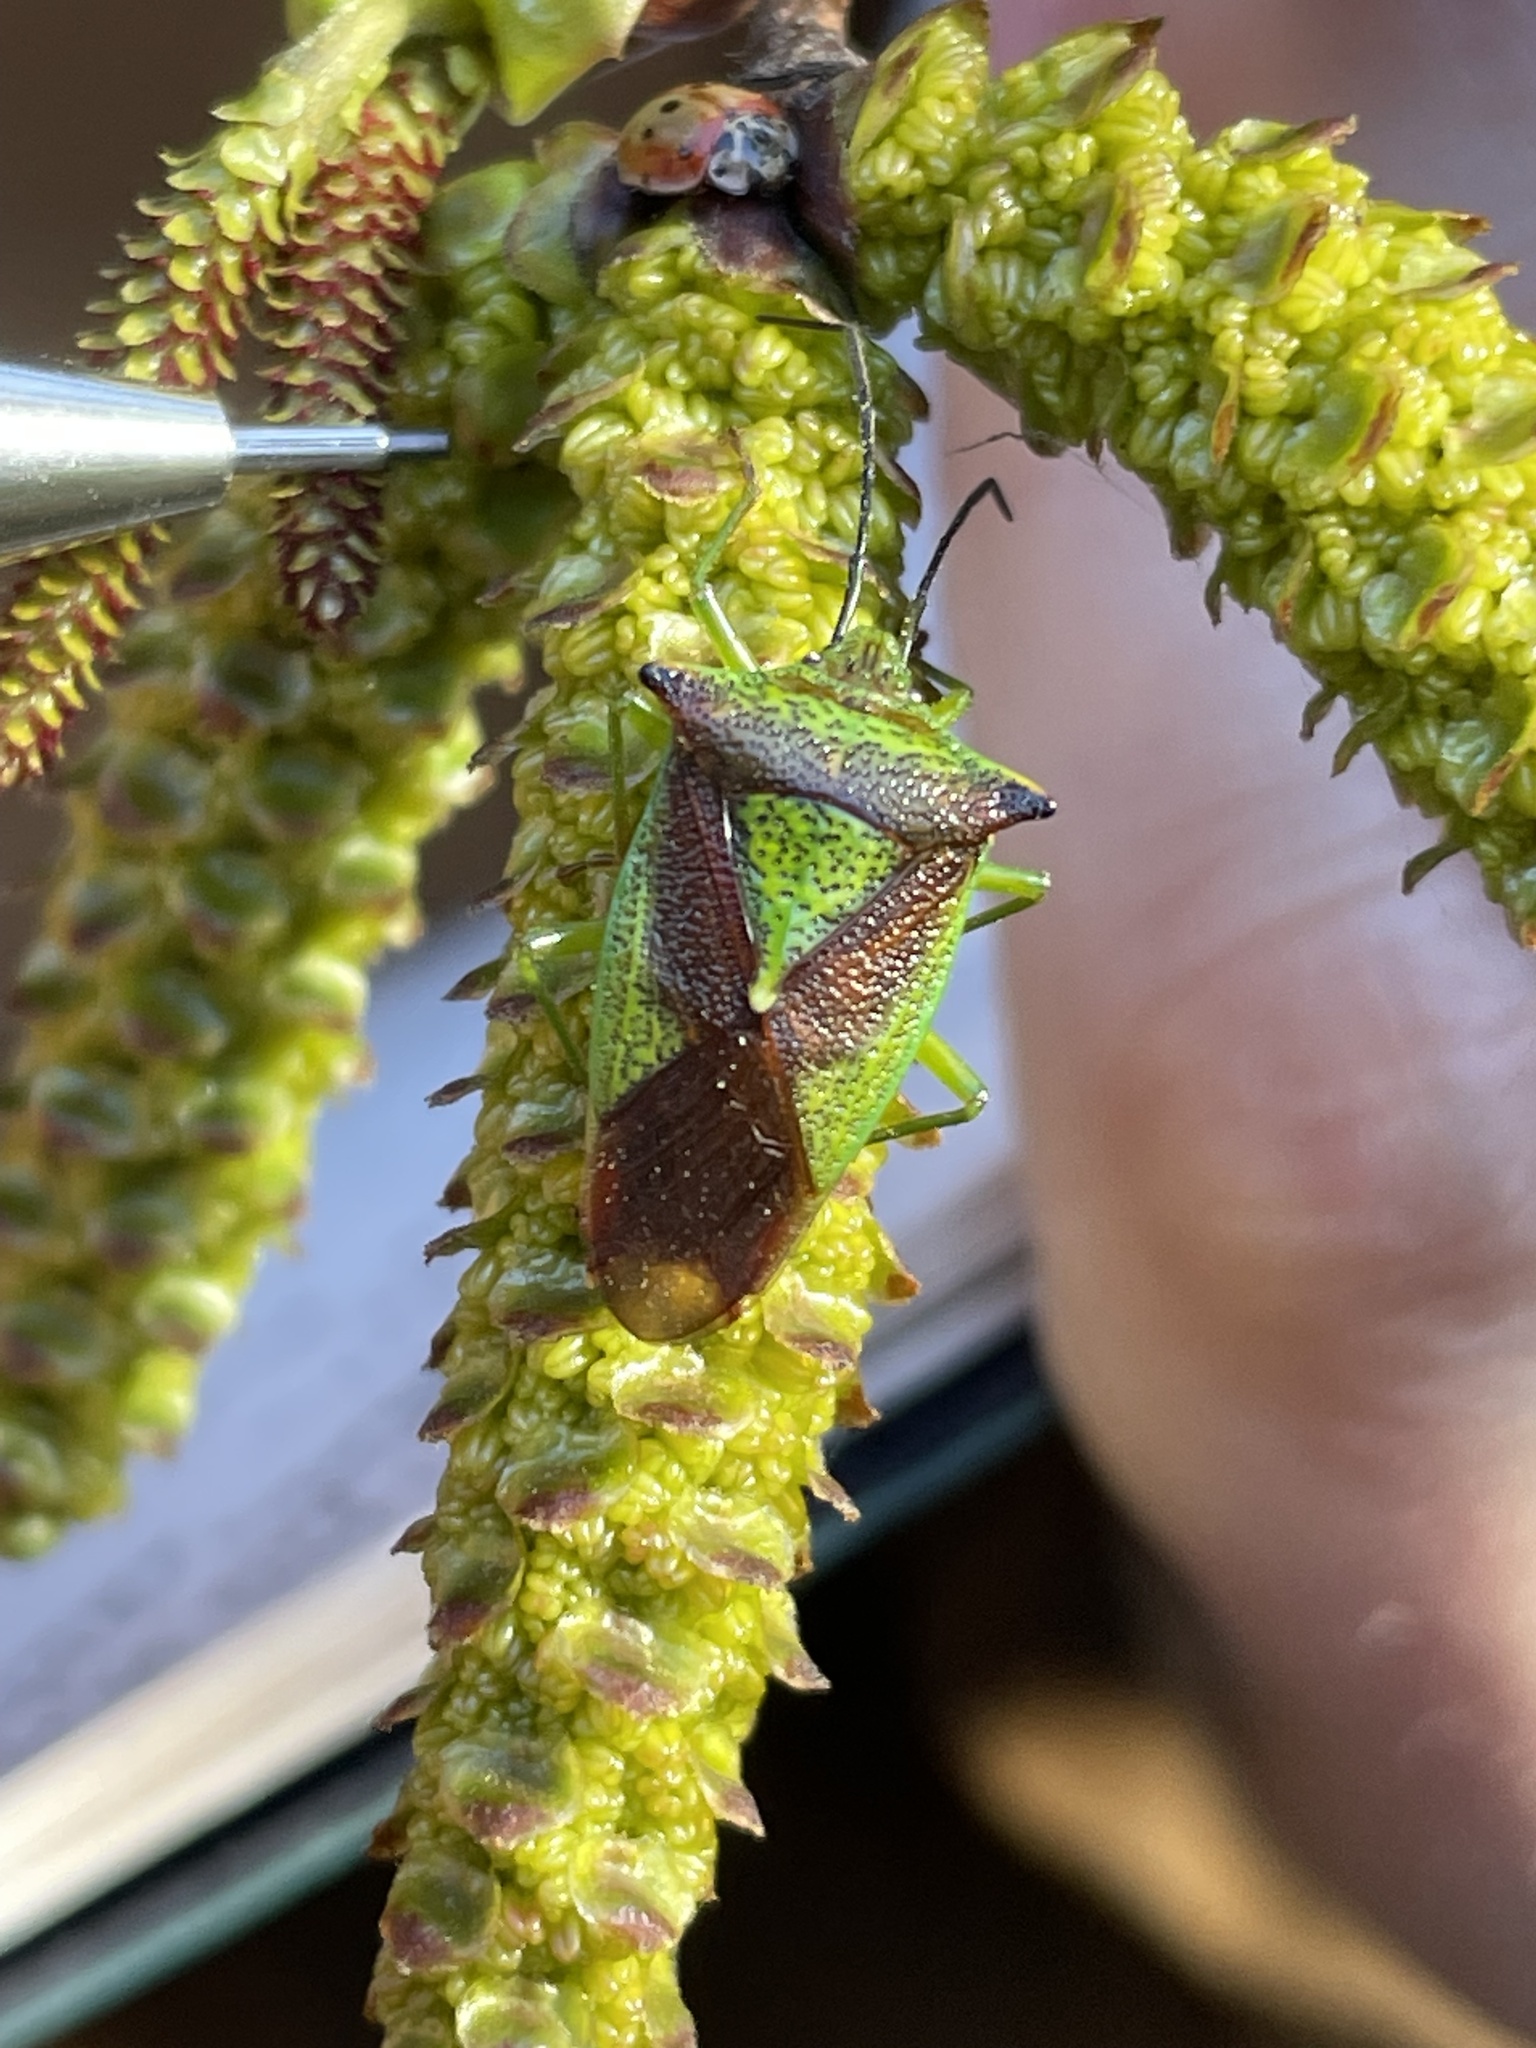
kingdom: Animalia
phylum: Arthropoda
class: Insecta
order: Hemiptera
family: Acanthosomatidae
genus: Acanthosoma
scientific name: Acanthosoma haemorrhoidale
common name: Hawthorn shieldbug
